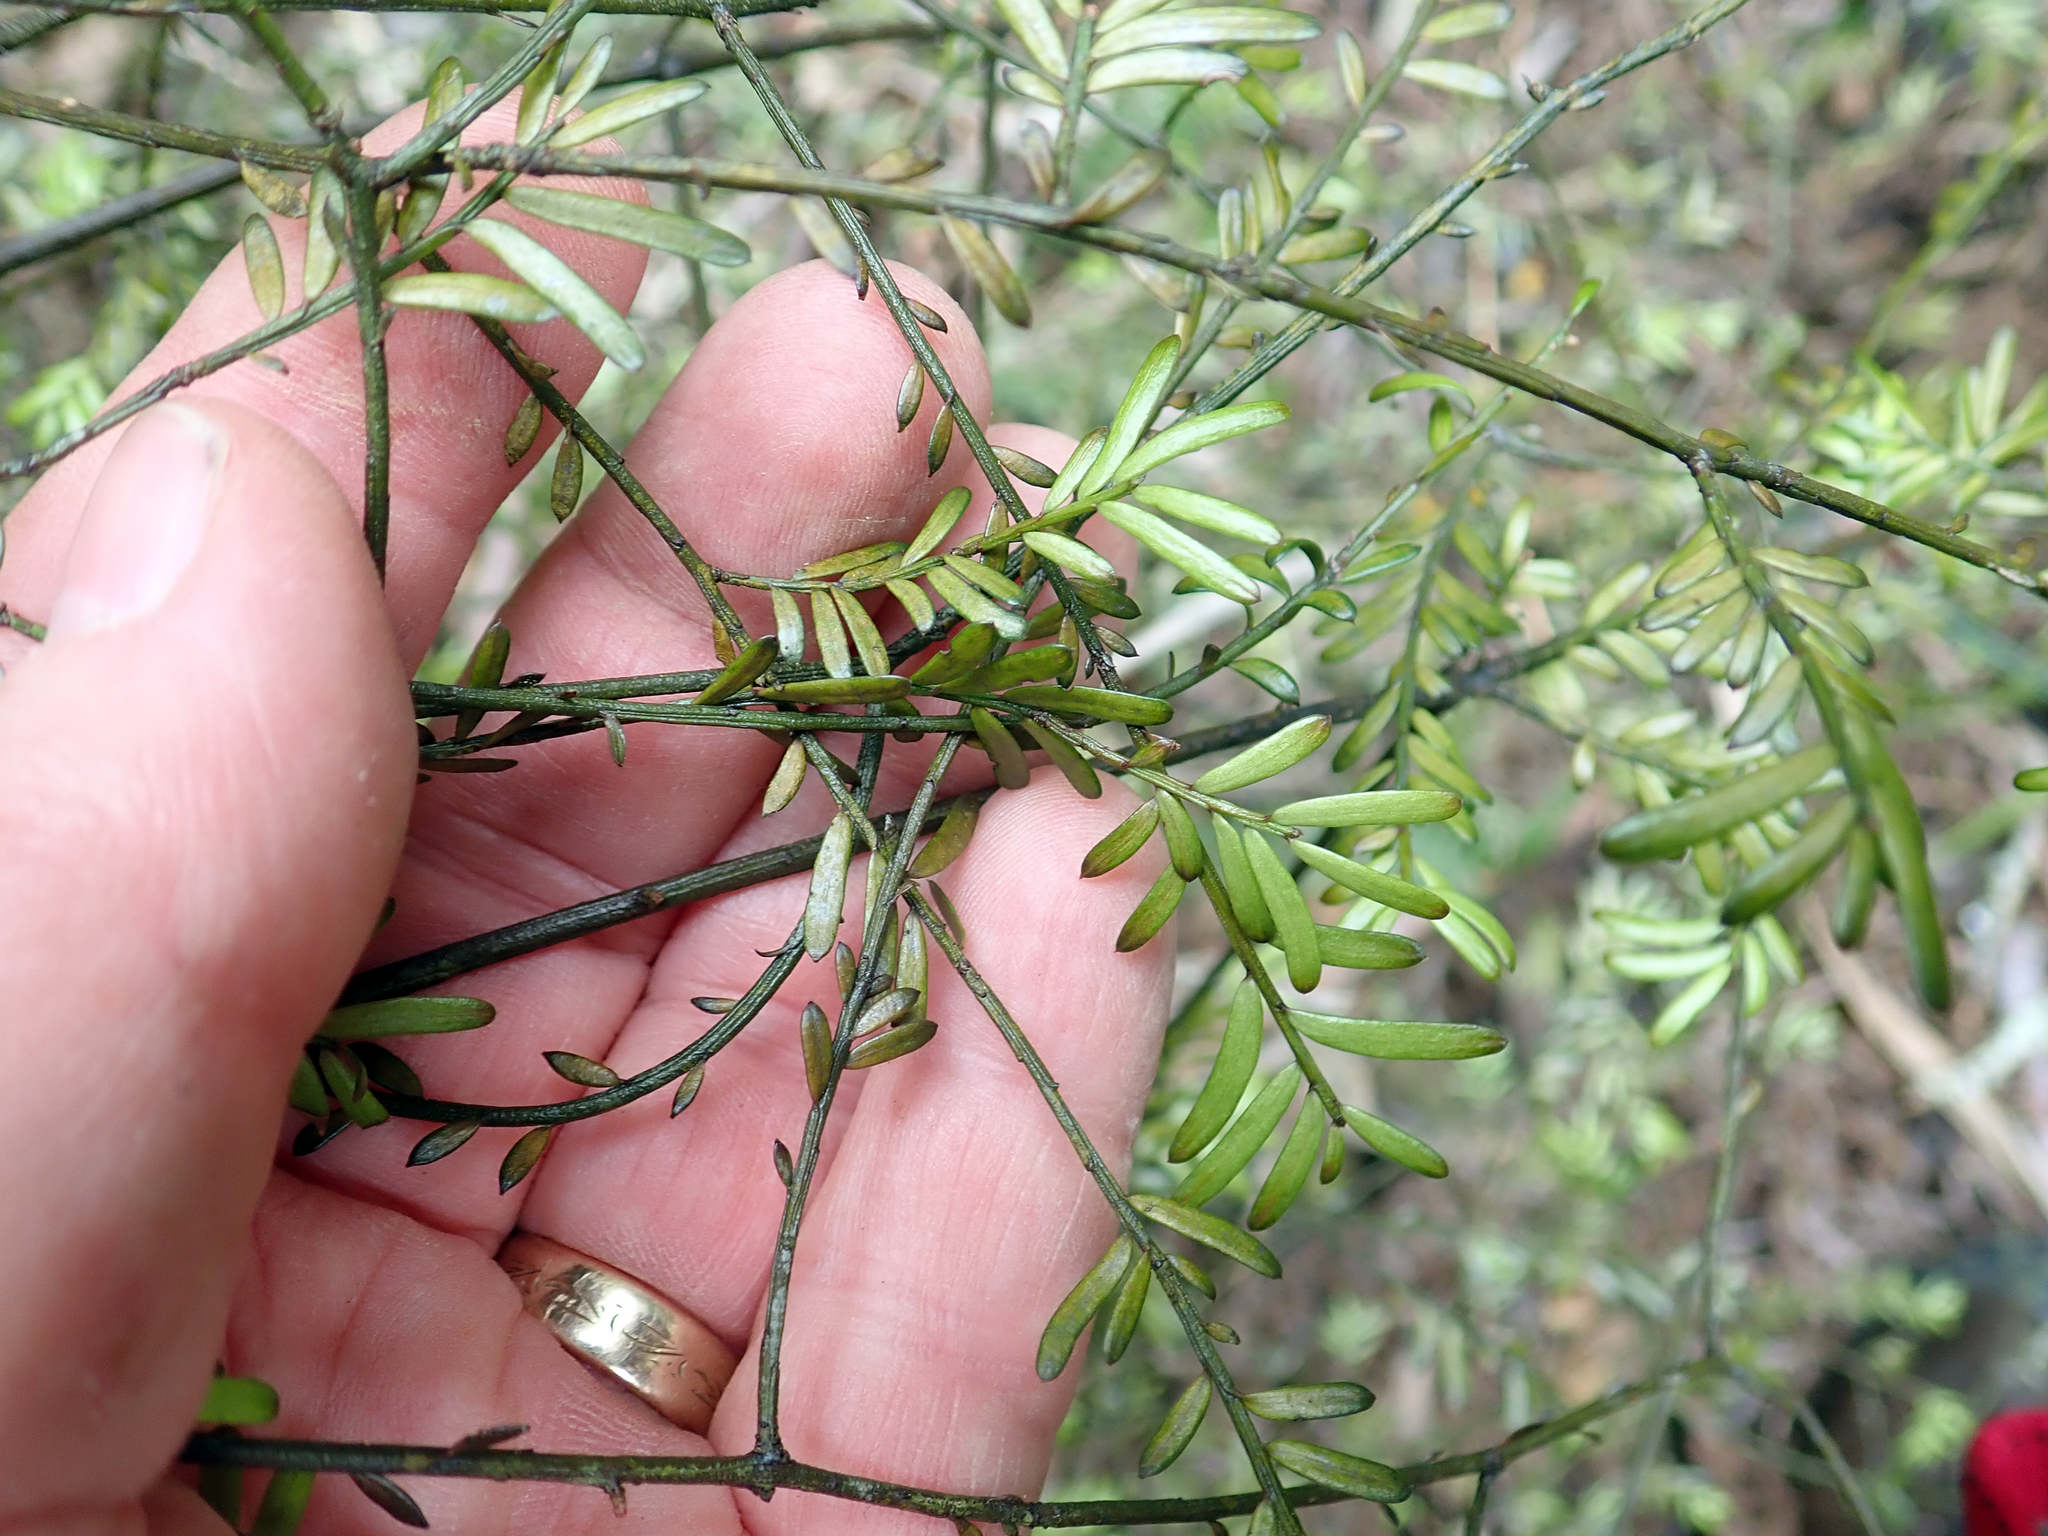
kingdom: Plantae
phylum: Tracheophyta
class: Pinopsida
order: Pinales
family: Podocarpaceae
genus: Prumnopitys
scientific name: Prumnopitys taxifolia
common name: Matai
